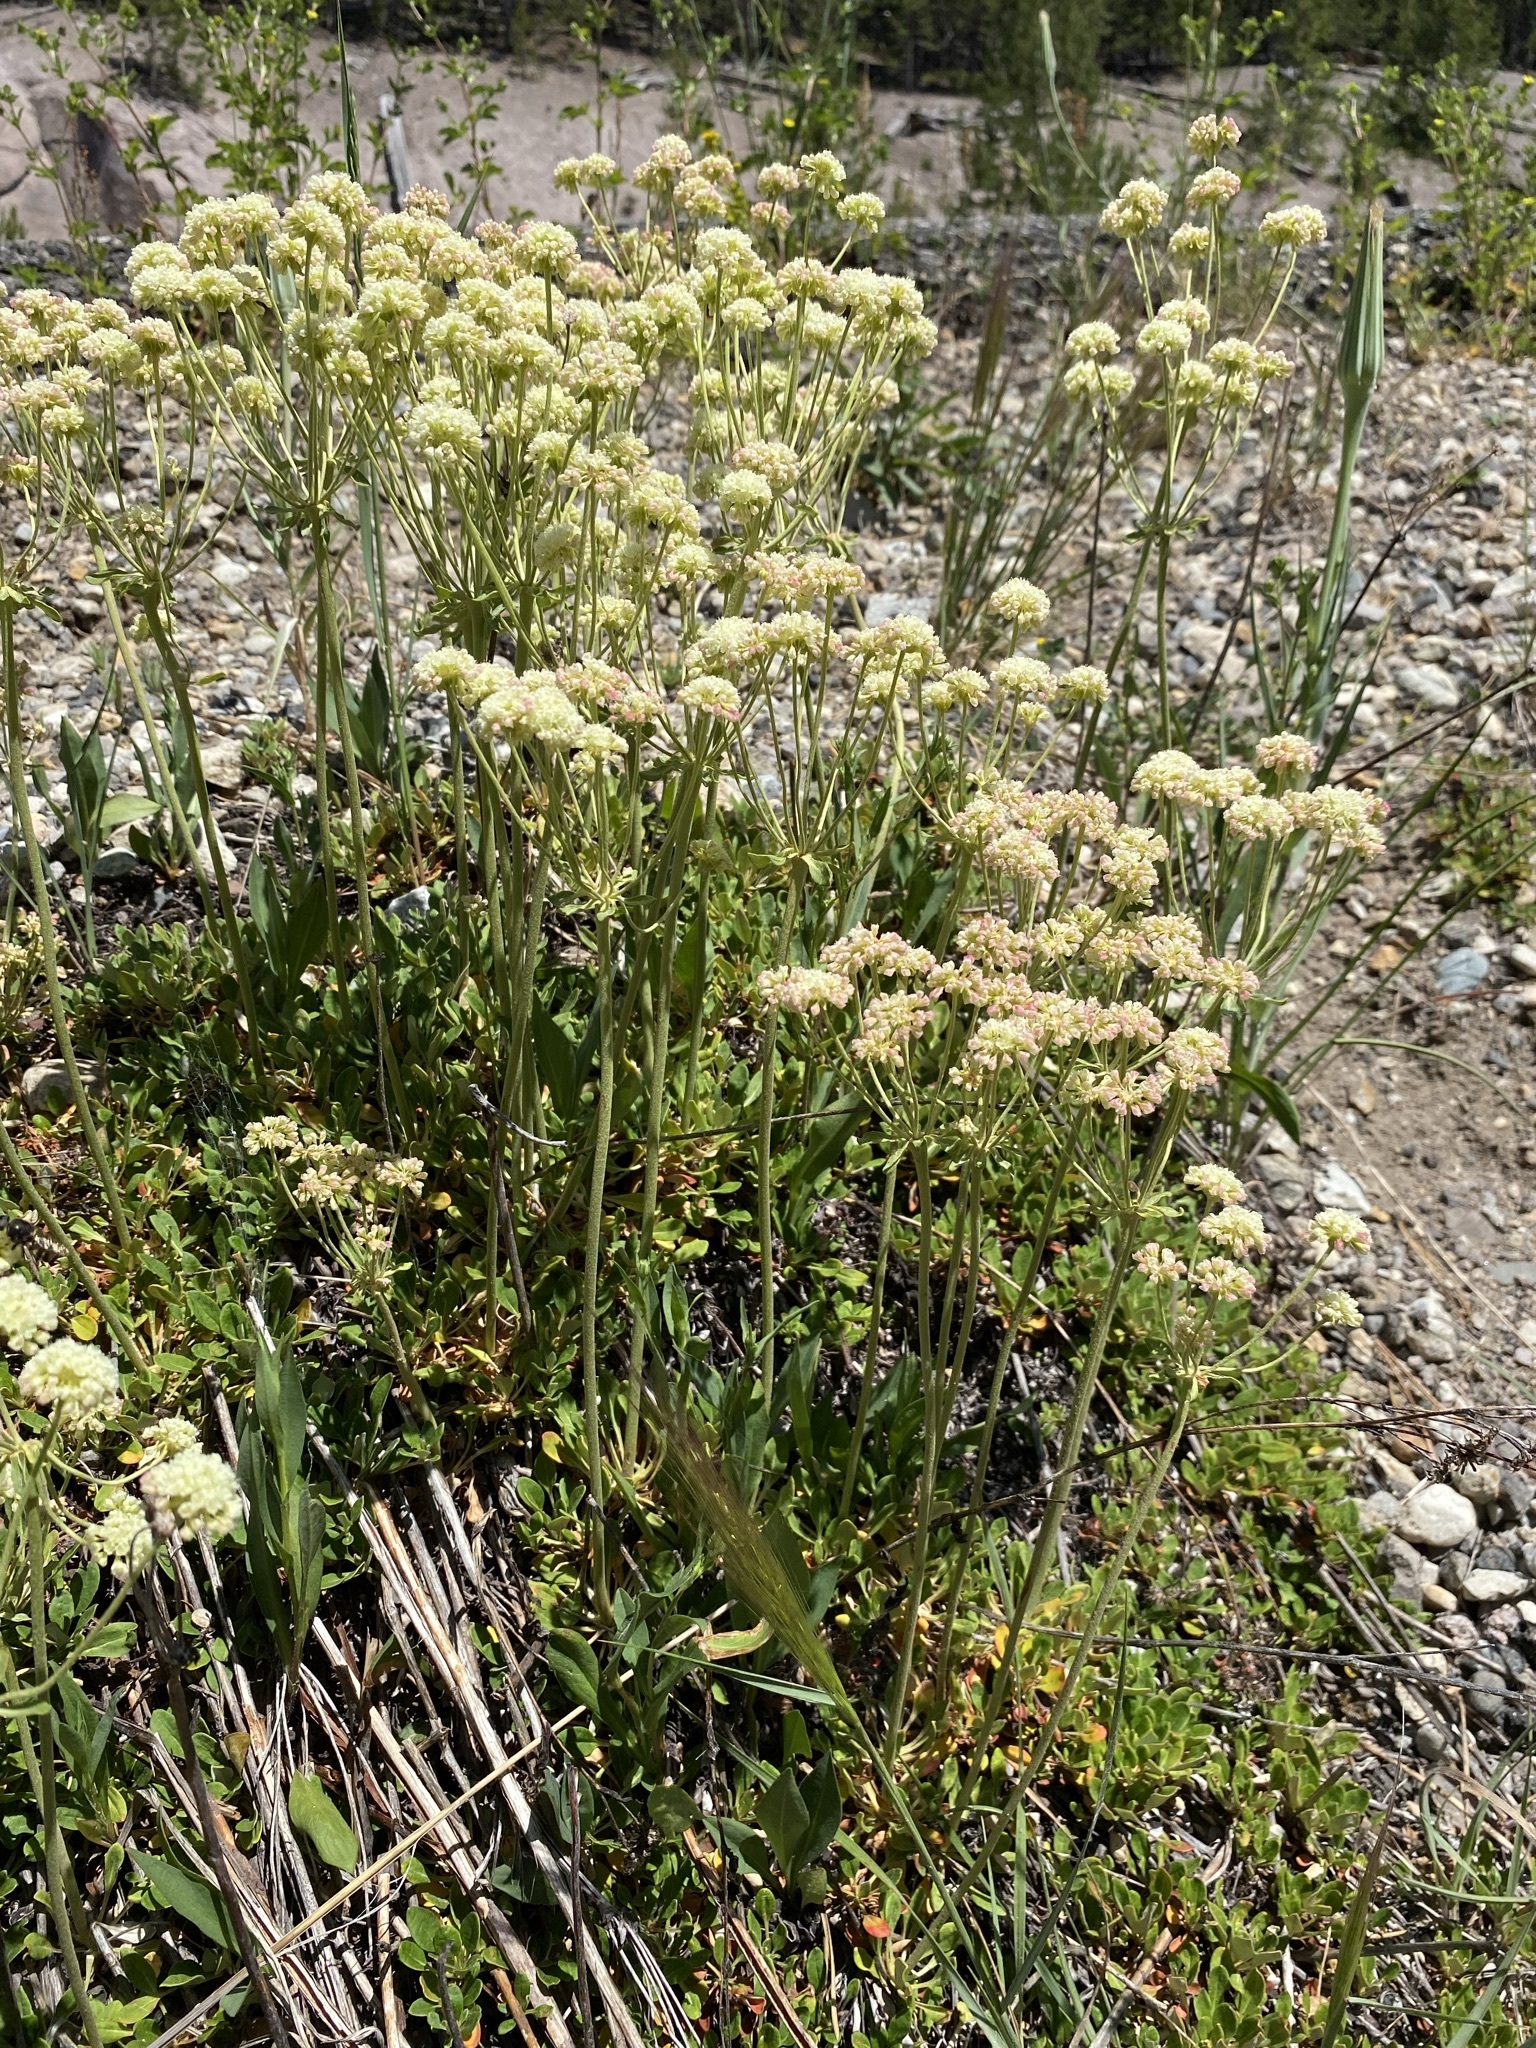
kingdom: Plantae
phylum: Tracheophyta
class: Magnoliopsida
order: Caryophyllales
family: Polygonaceae
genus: Eriogonum
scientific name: Eriogonum umbellatum
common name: Sulfur-buckwheat
